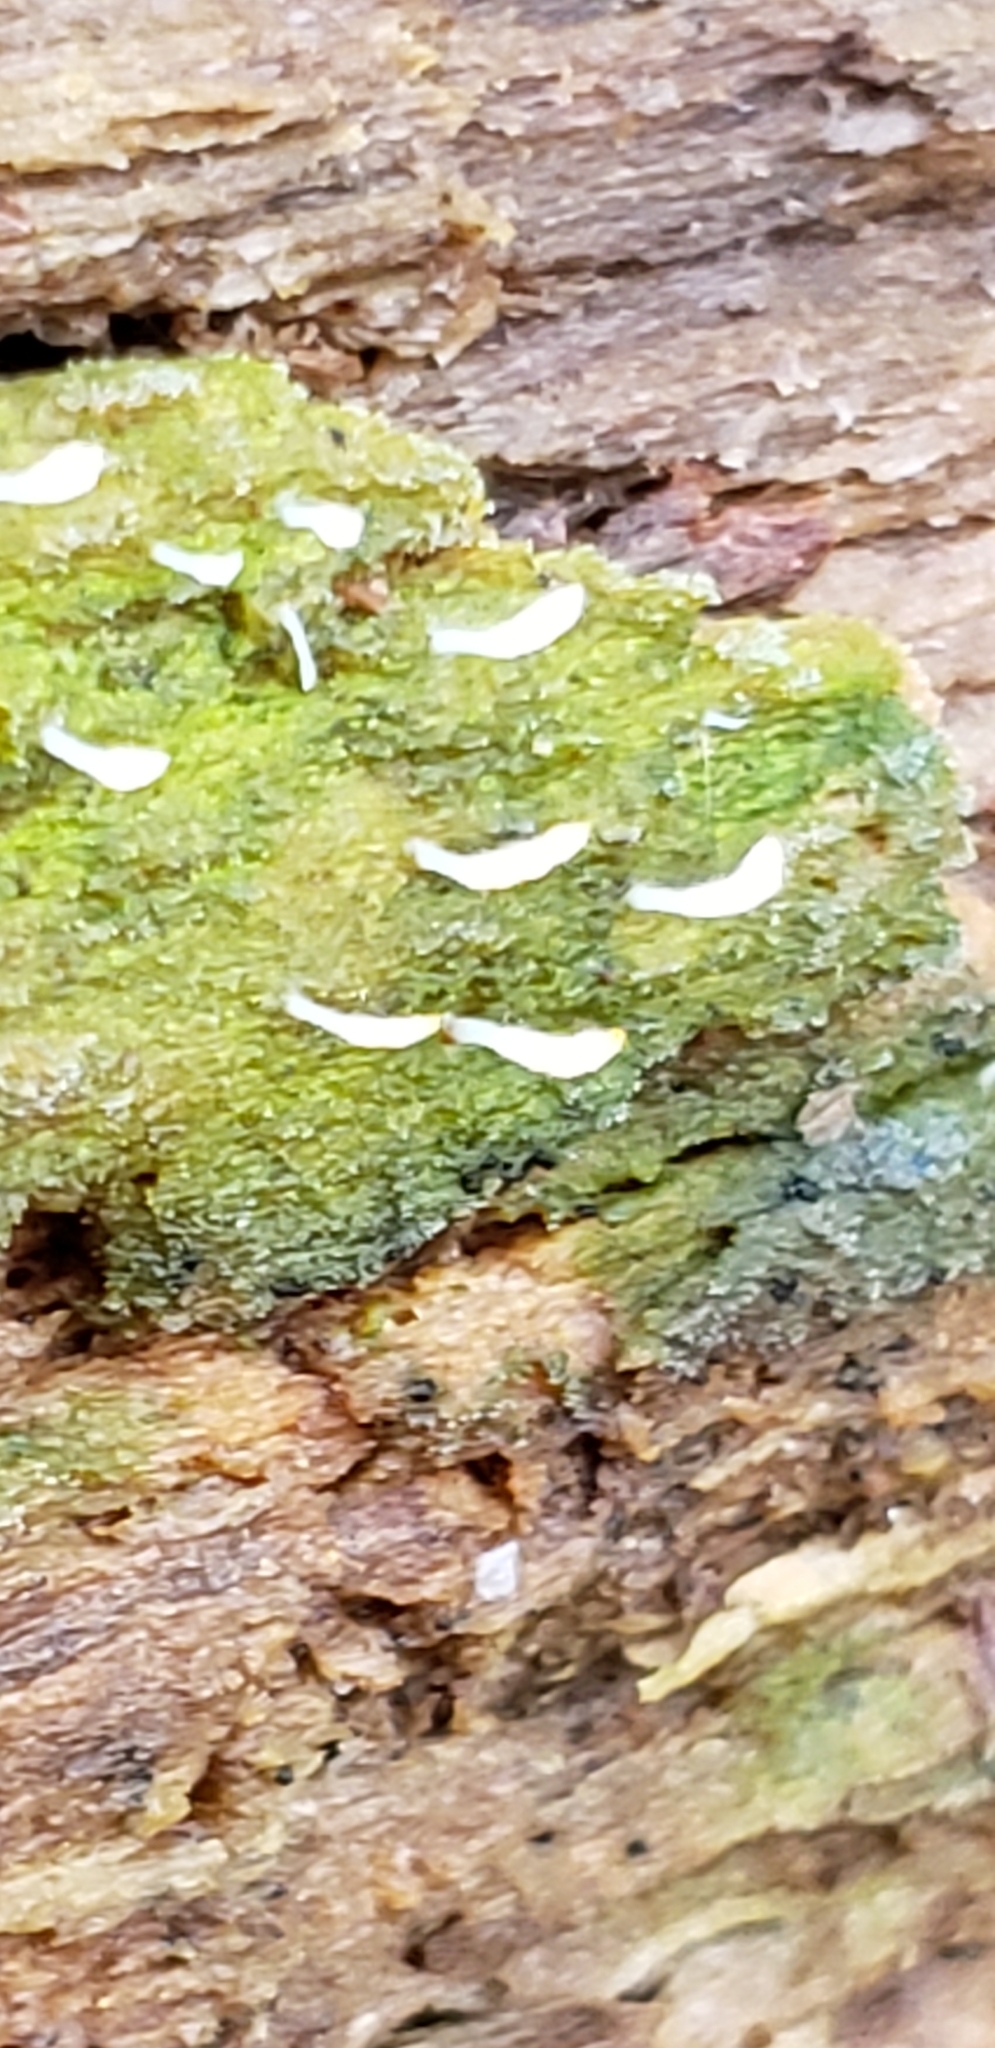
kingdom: Fungi
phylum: Basidiomycota
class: Agaricomycetes
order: Cantharellales
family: Hydnaceae
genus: Multiclavula
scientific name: Multiclavula mucida
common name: White green-algae coral
